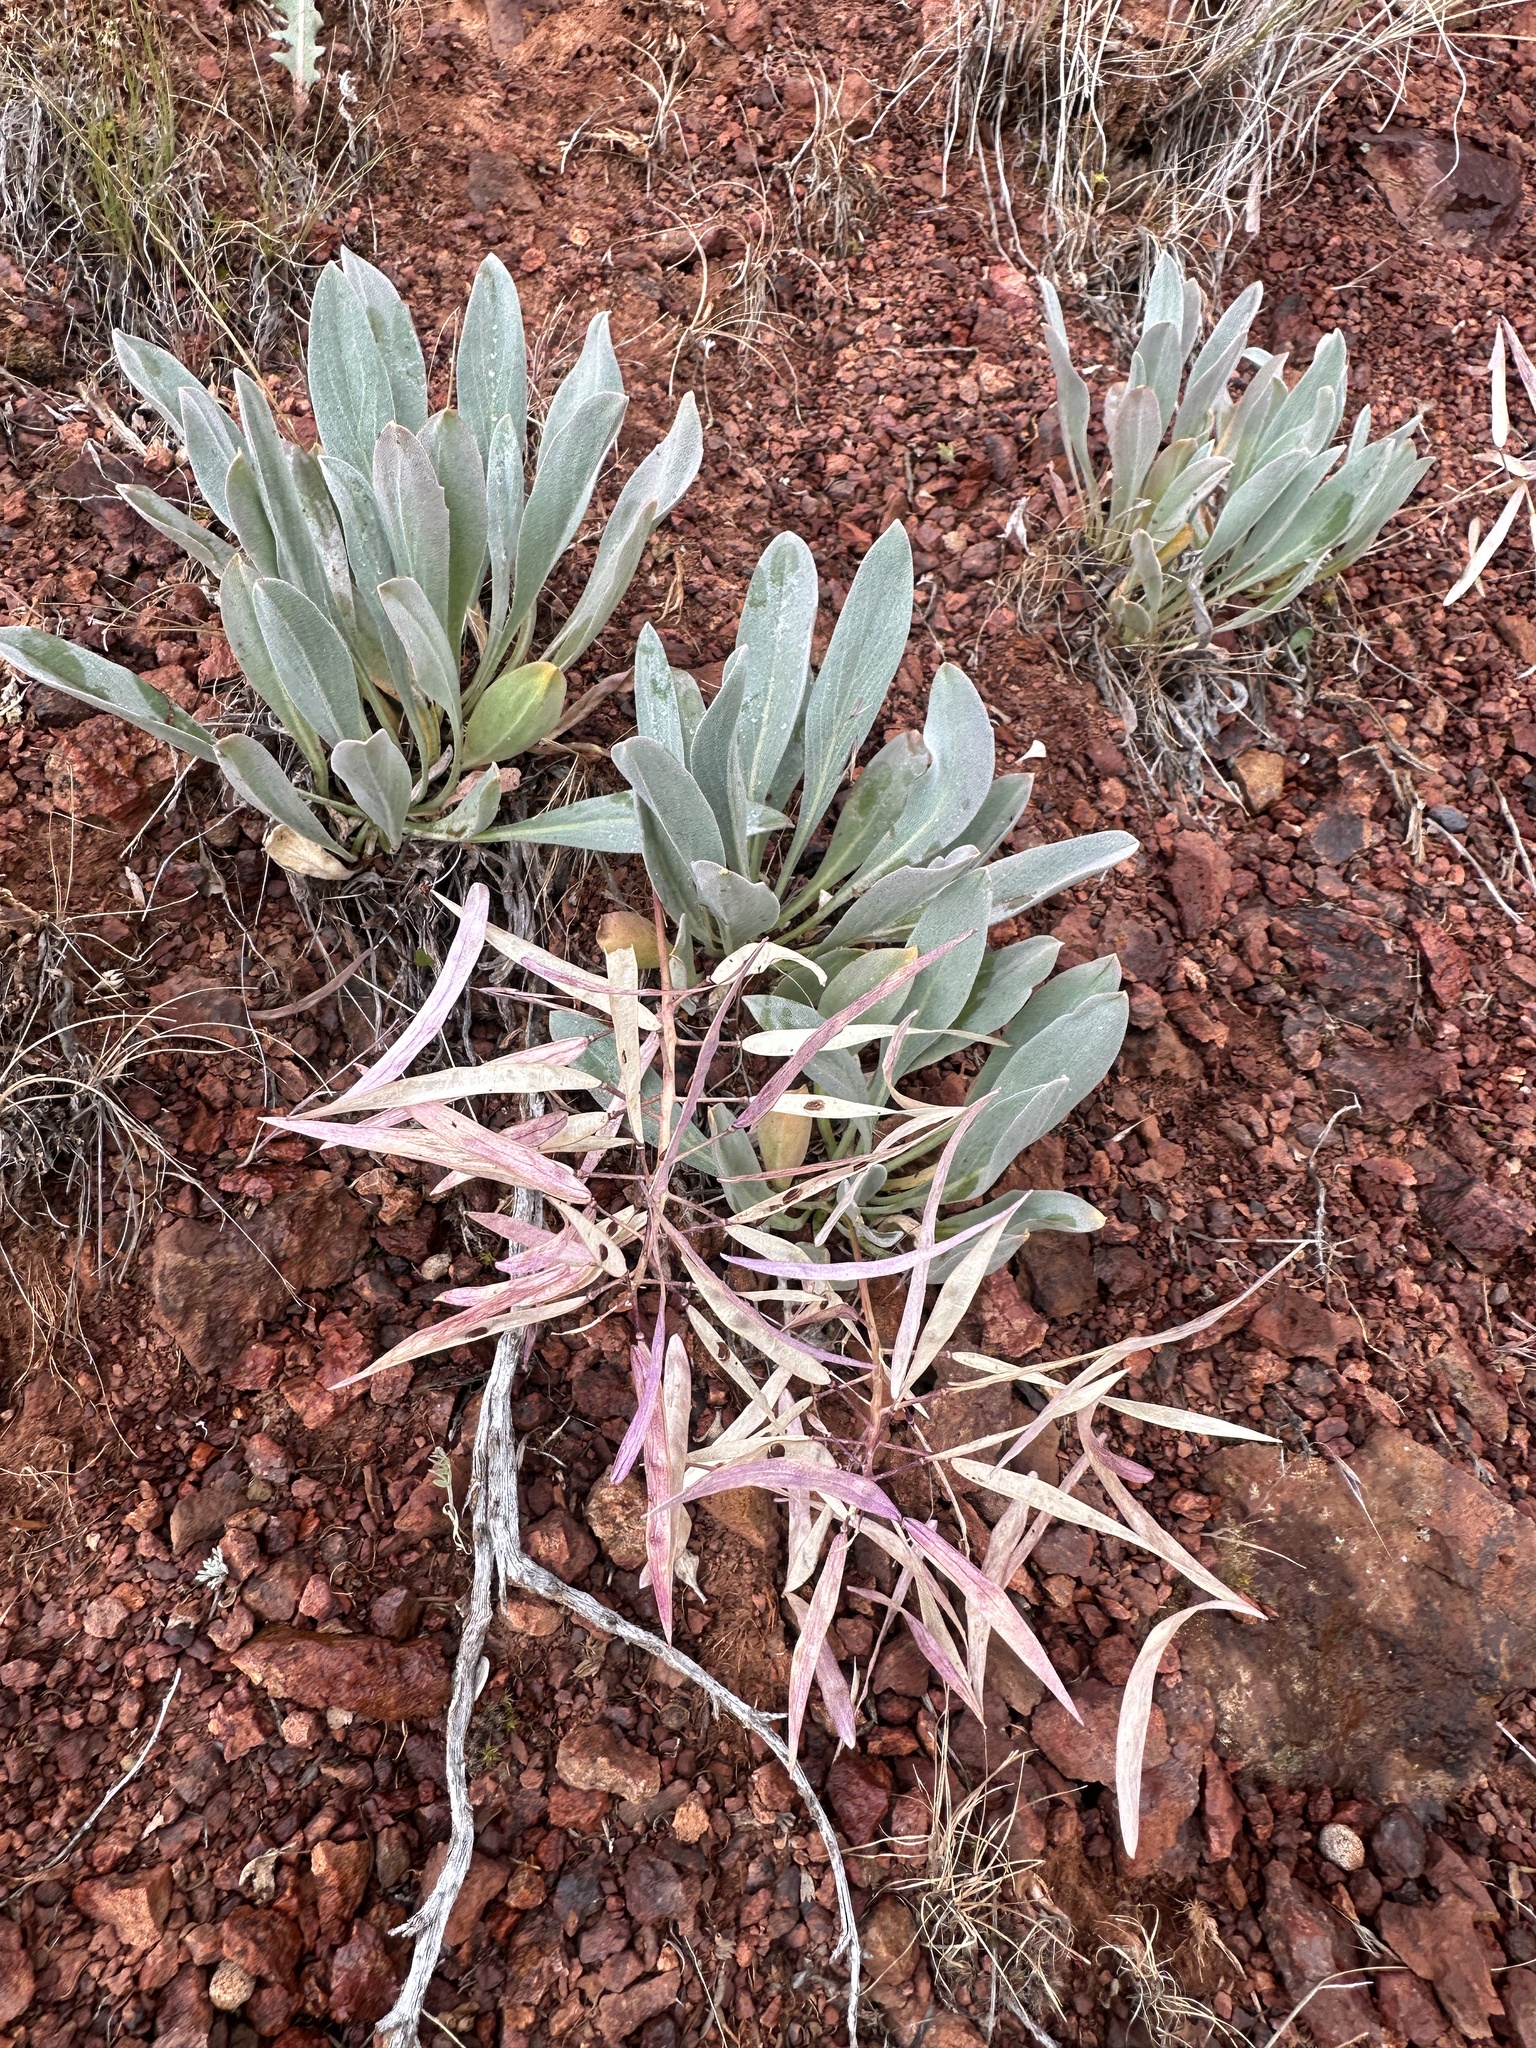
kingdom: Plantae
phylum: Tracheophyta
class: Magnoliopsida
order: Brassicales
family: Brassicaceae
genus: Phoenicaulis
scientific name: Phoenicaulis cheiranthoides
